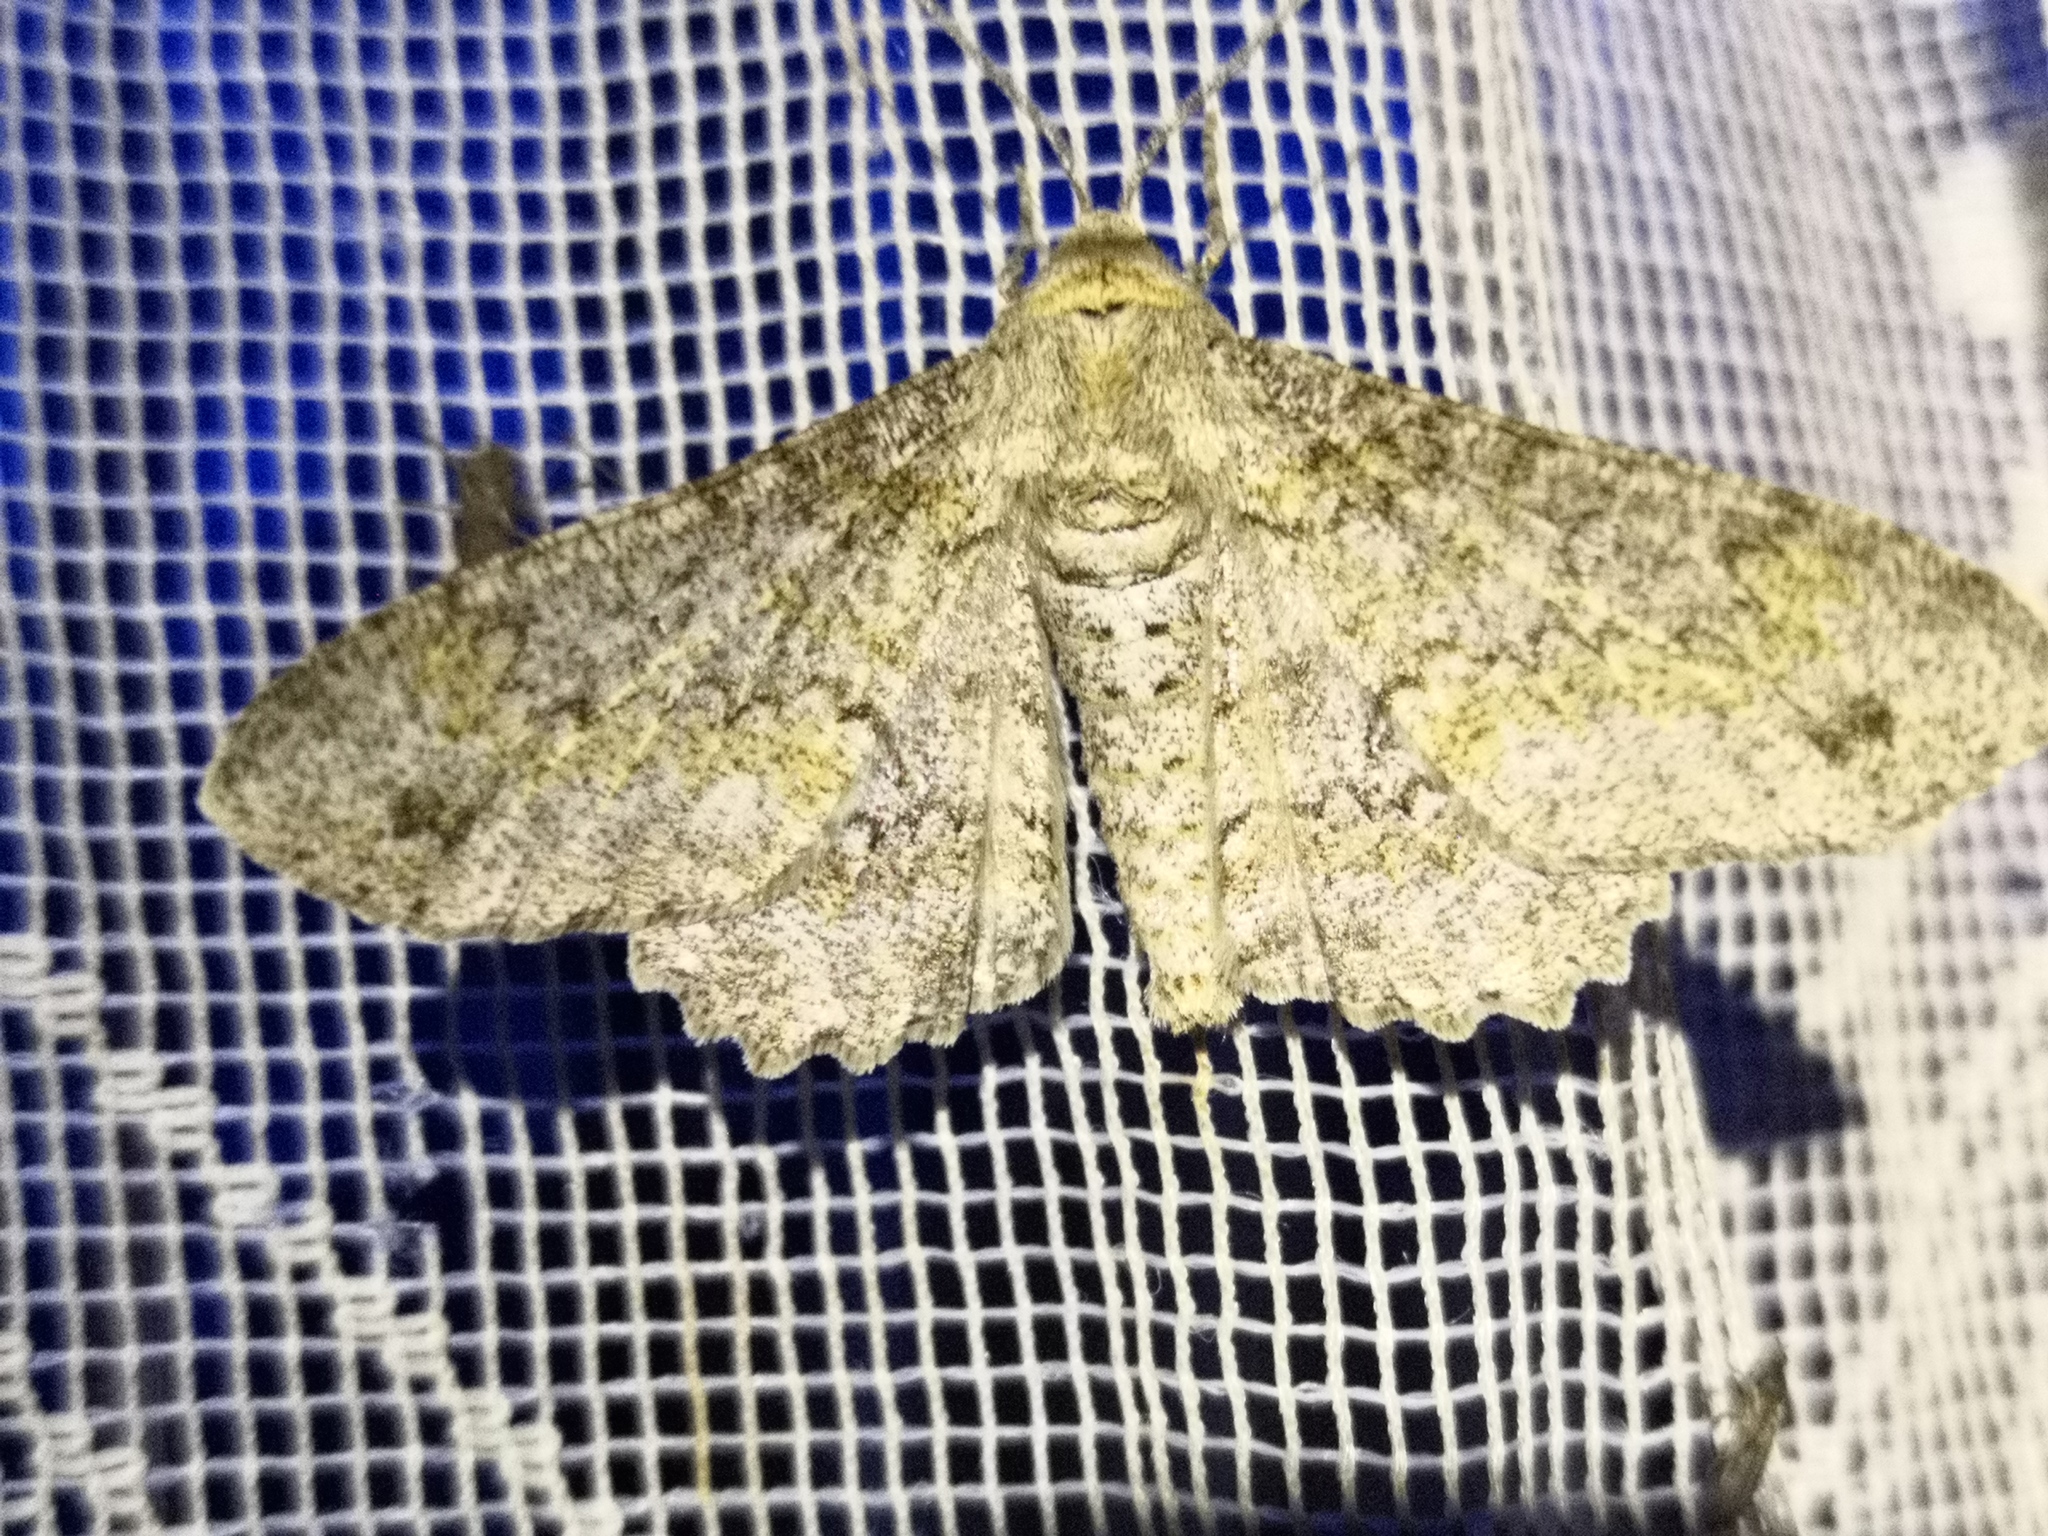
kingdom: Animalia
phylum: Arthropoda
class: Insecta
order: Lepidoptera
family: Geometridae
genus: Ascotis
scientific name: Ascotis selenaria
